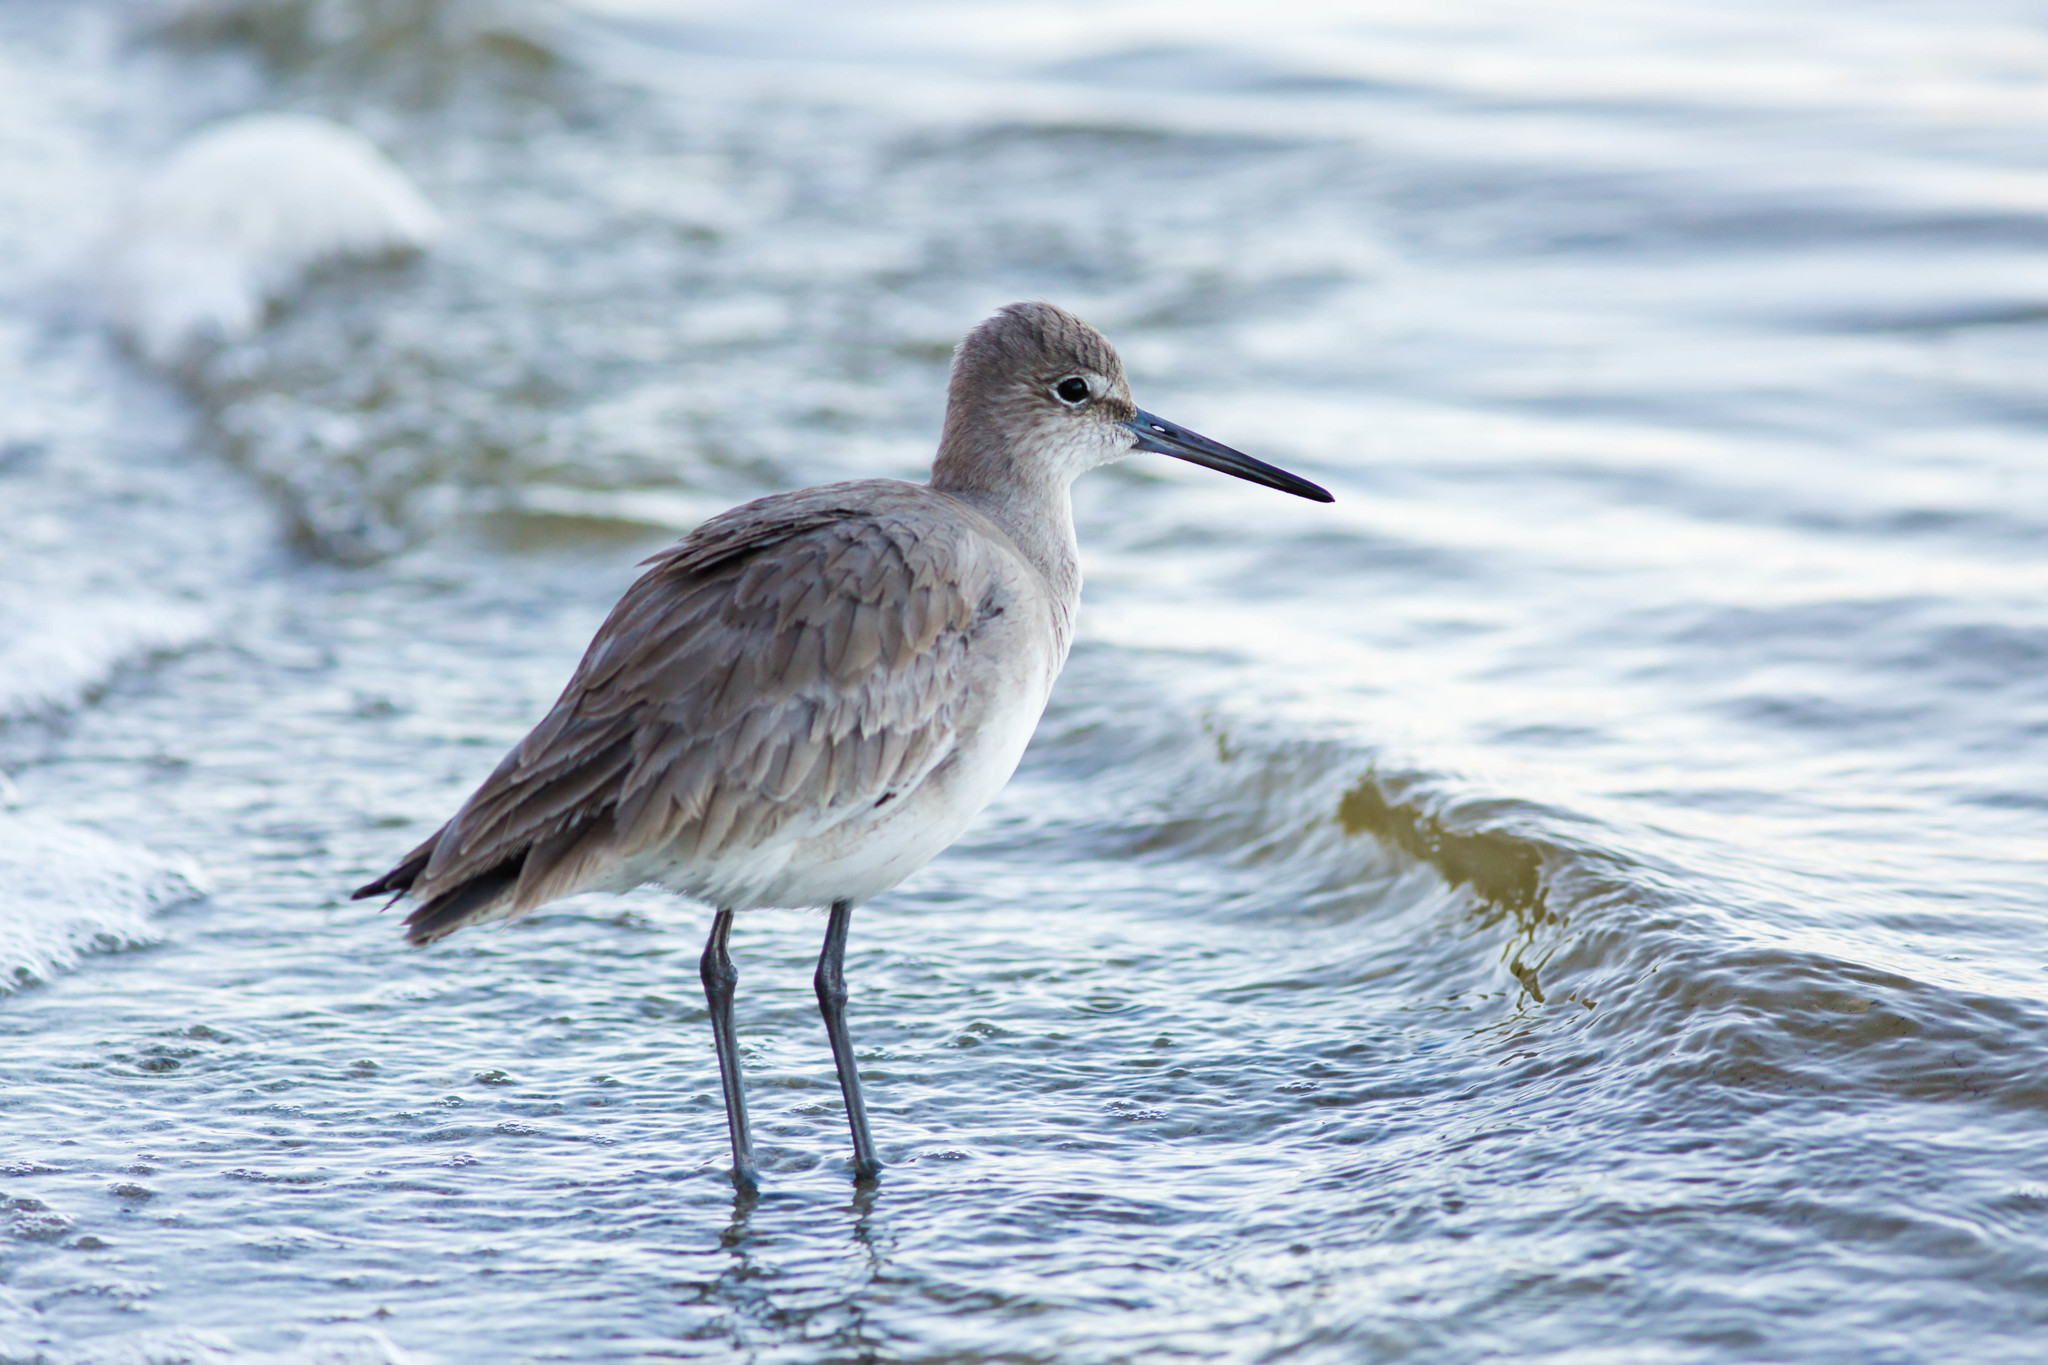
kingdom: Animalia
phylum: Chordata
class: Aves
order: Charadriiformes
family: Scolopacidae
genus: Tringa
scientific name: Tringa semipalmata
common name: Willet
